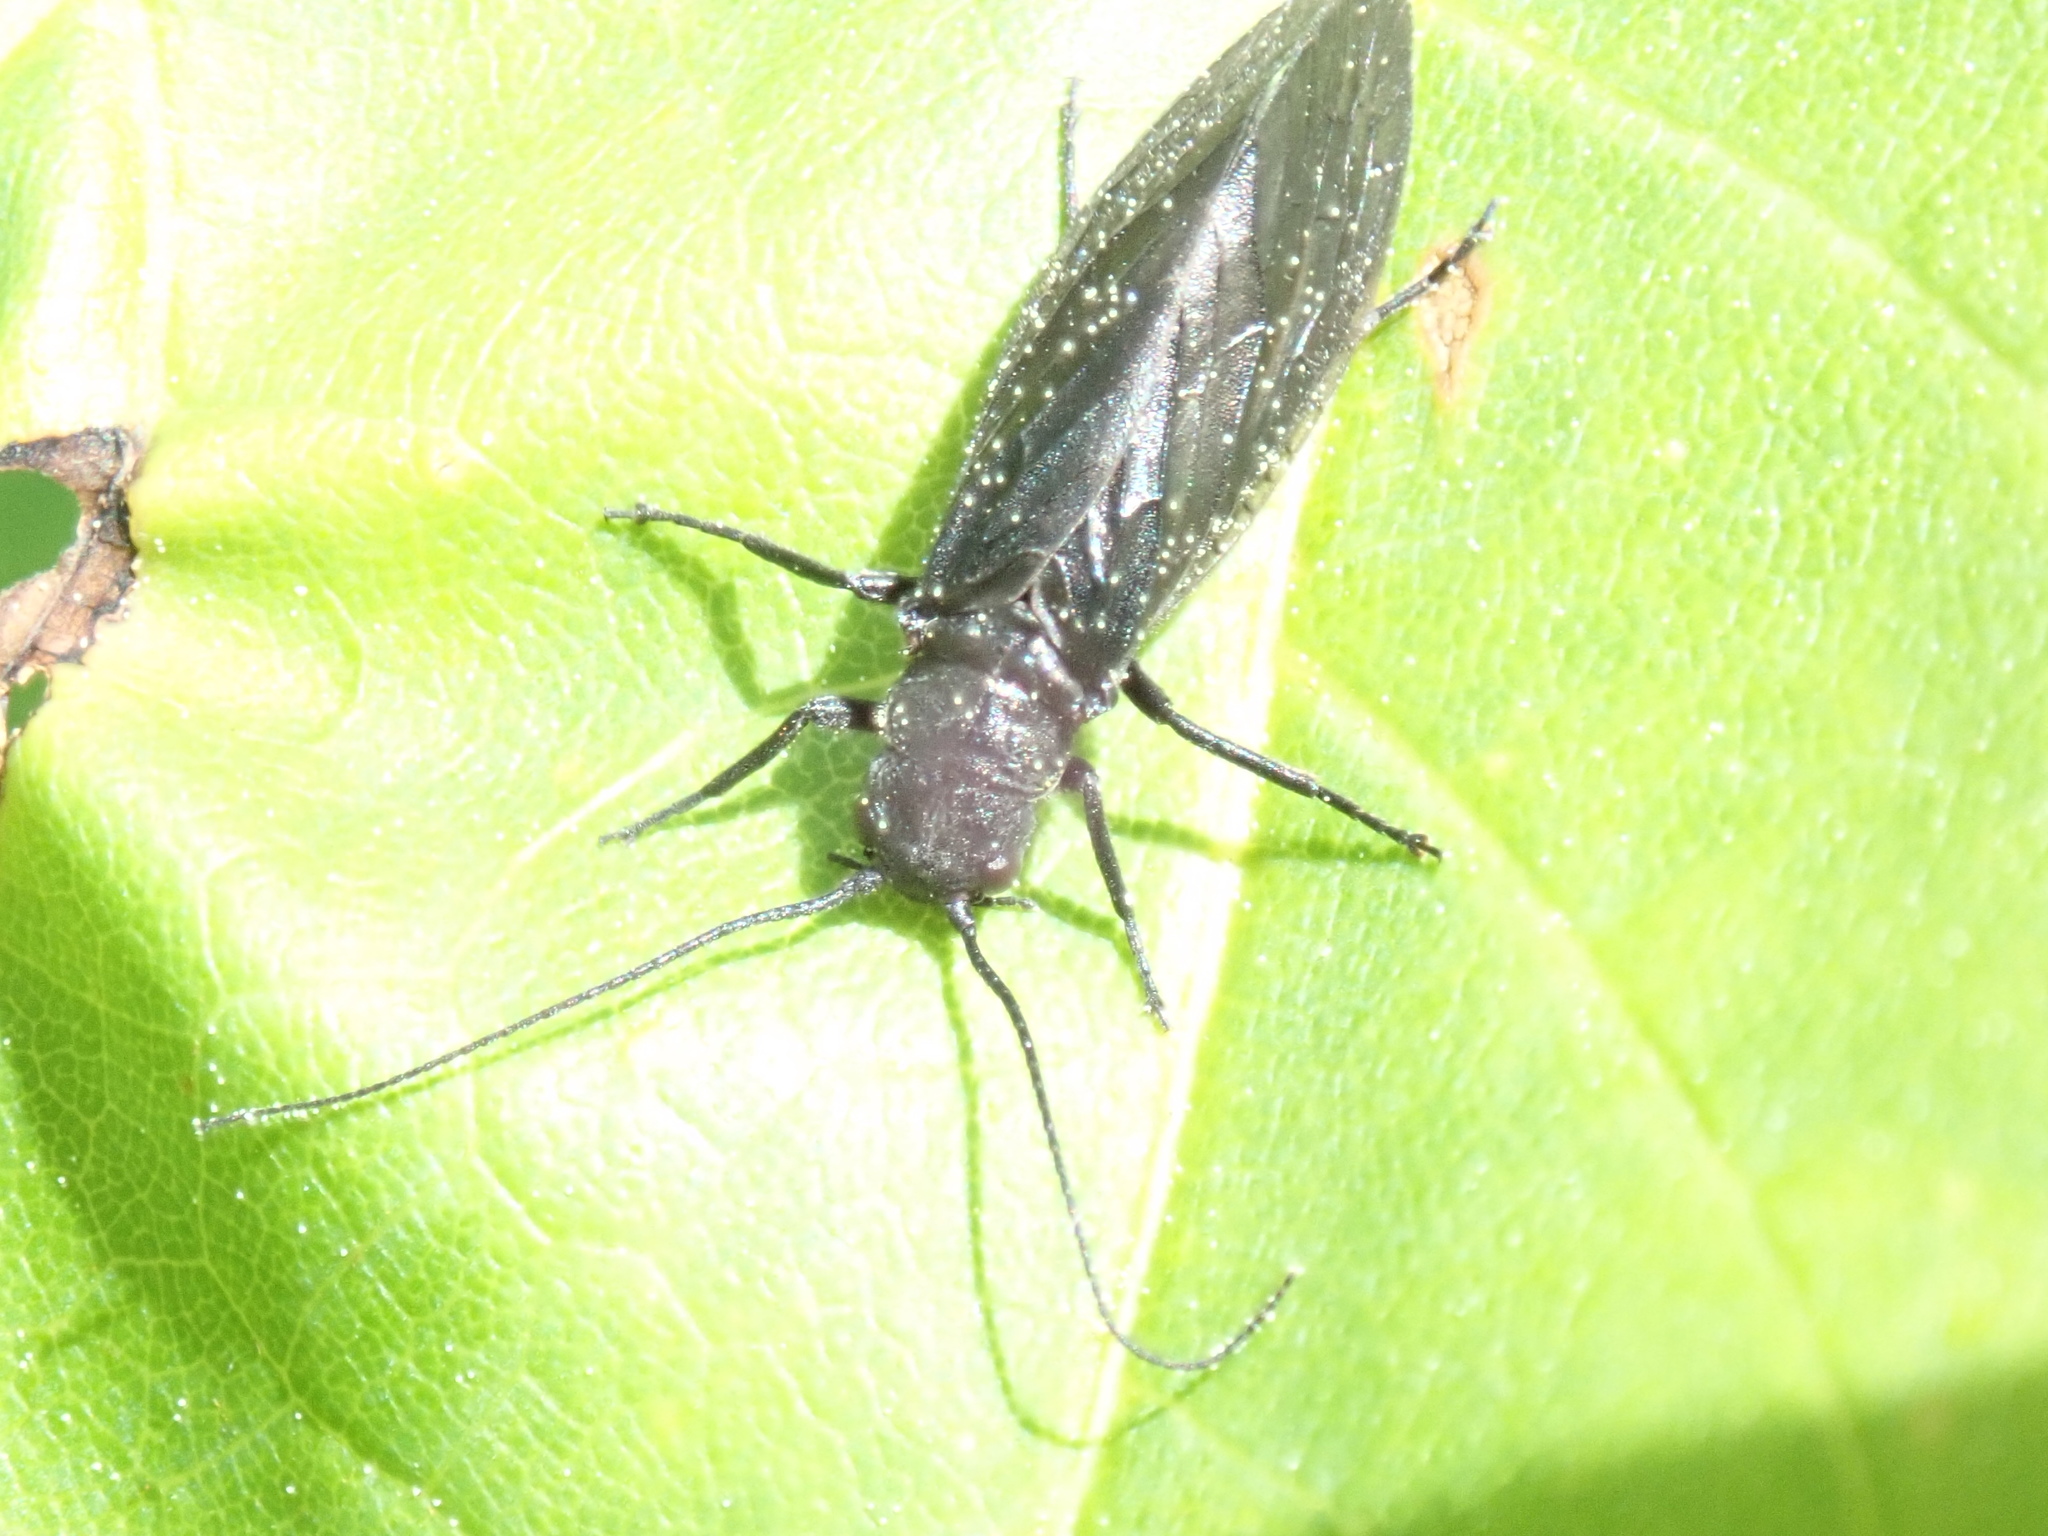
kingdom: Animalia
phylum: Arthropoda
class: Insecta
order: Megaloptera
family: Sialidae
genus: Sialis
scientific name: Sialis
